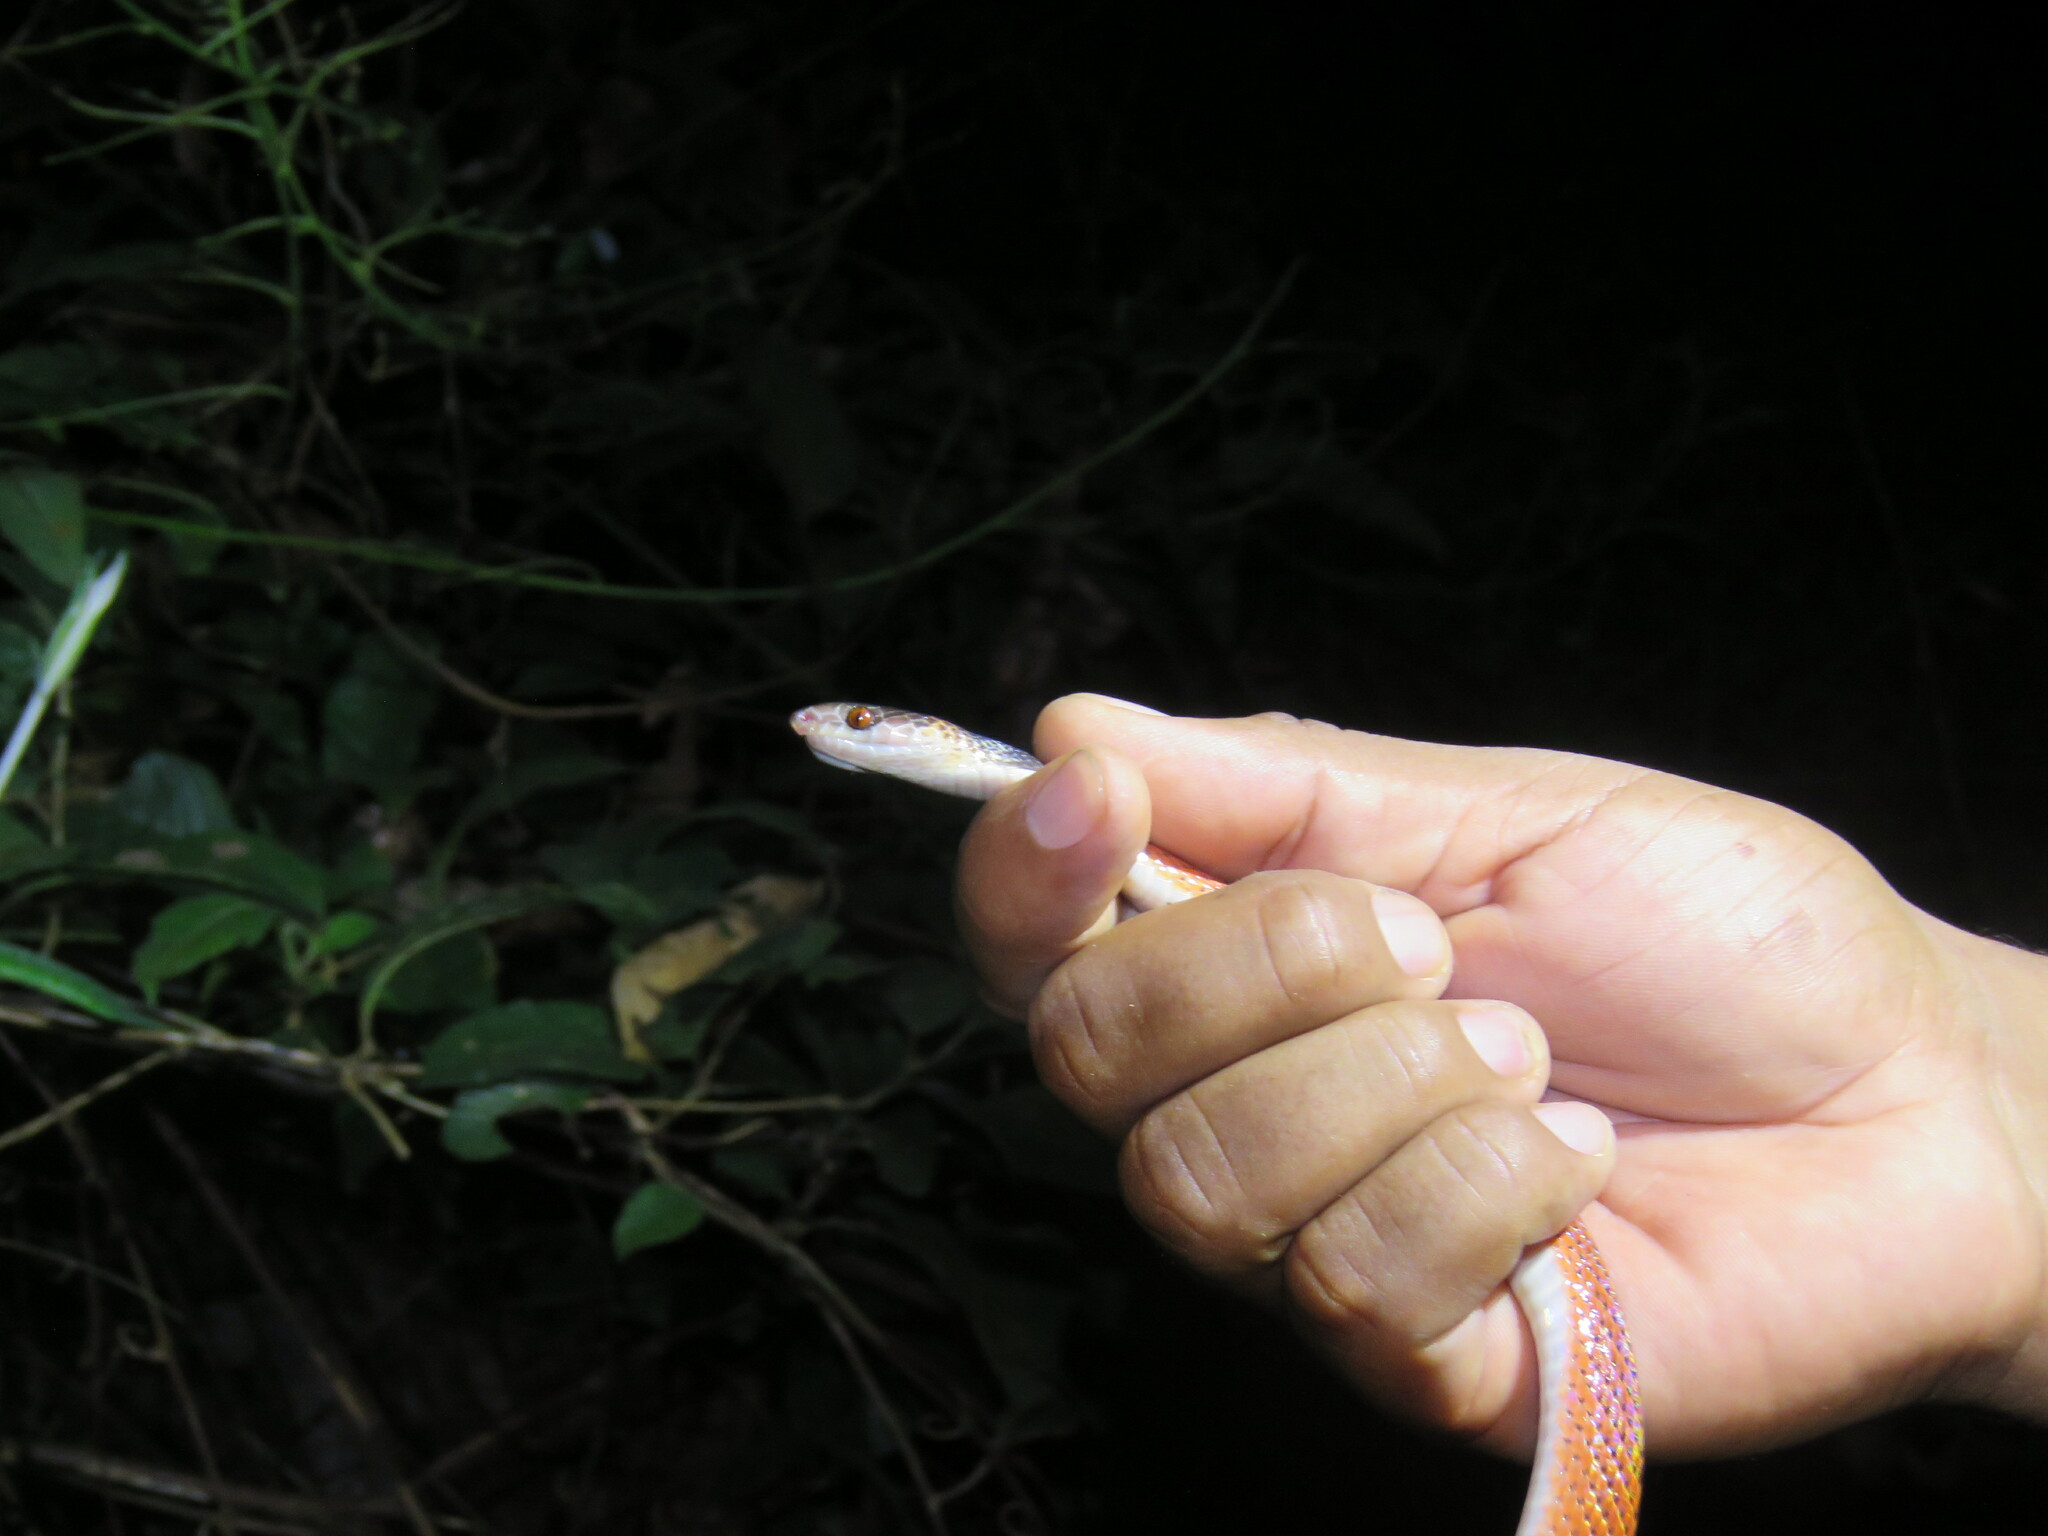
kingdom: Animalia
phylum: Chordata
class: Squamata
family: Colubridae
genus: Oxyrhopus
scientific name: Oxyrhopus melanogenys
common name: Tschudi's false coral snake
